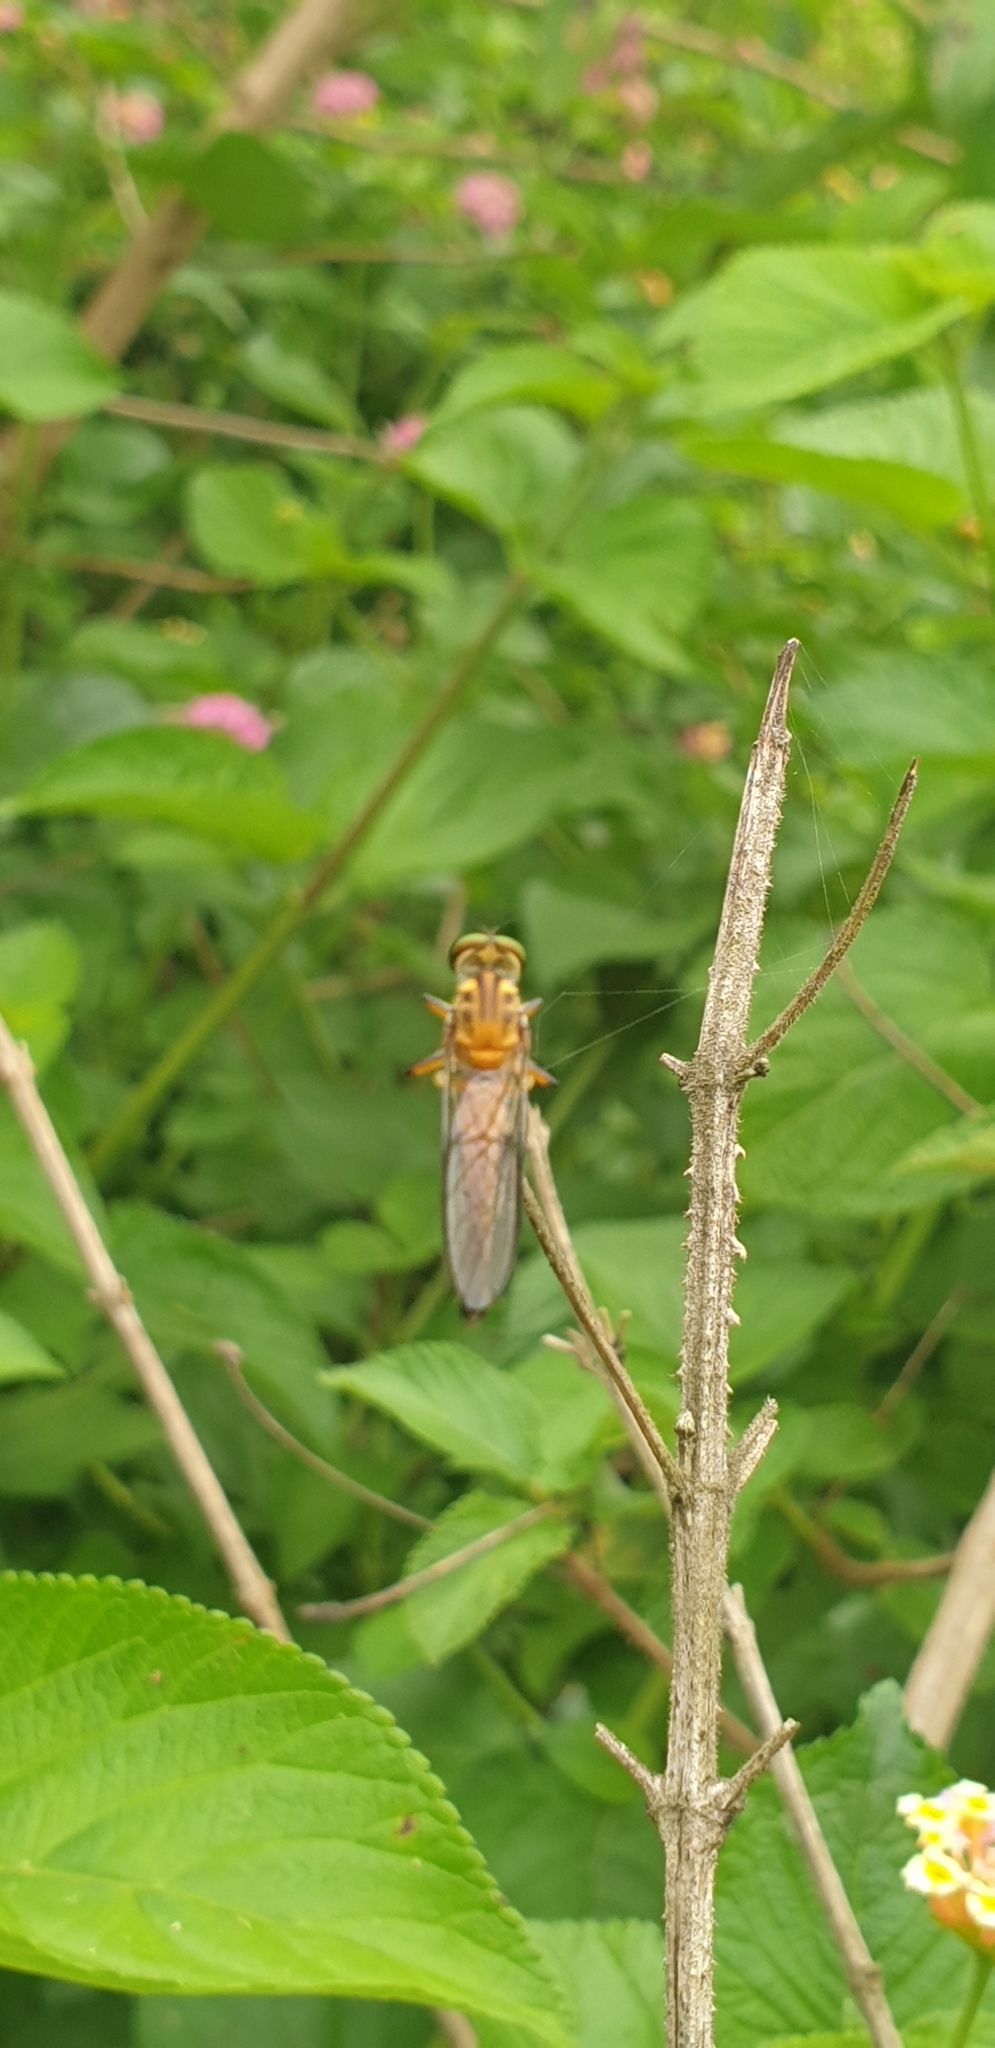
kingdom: Animalia
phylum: Arthropoda
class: Insecta
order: Diptera
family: Asilidae
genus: Ommatius
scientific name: Ommatius mackayi
